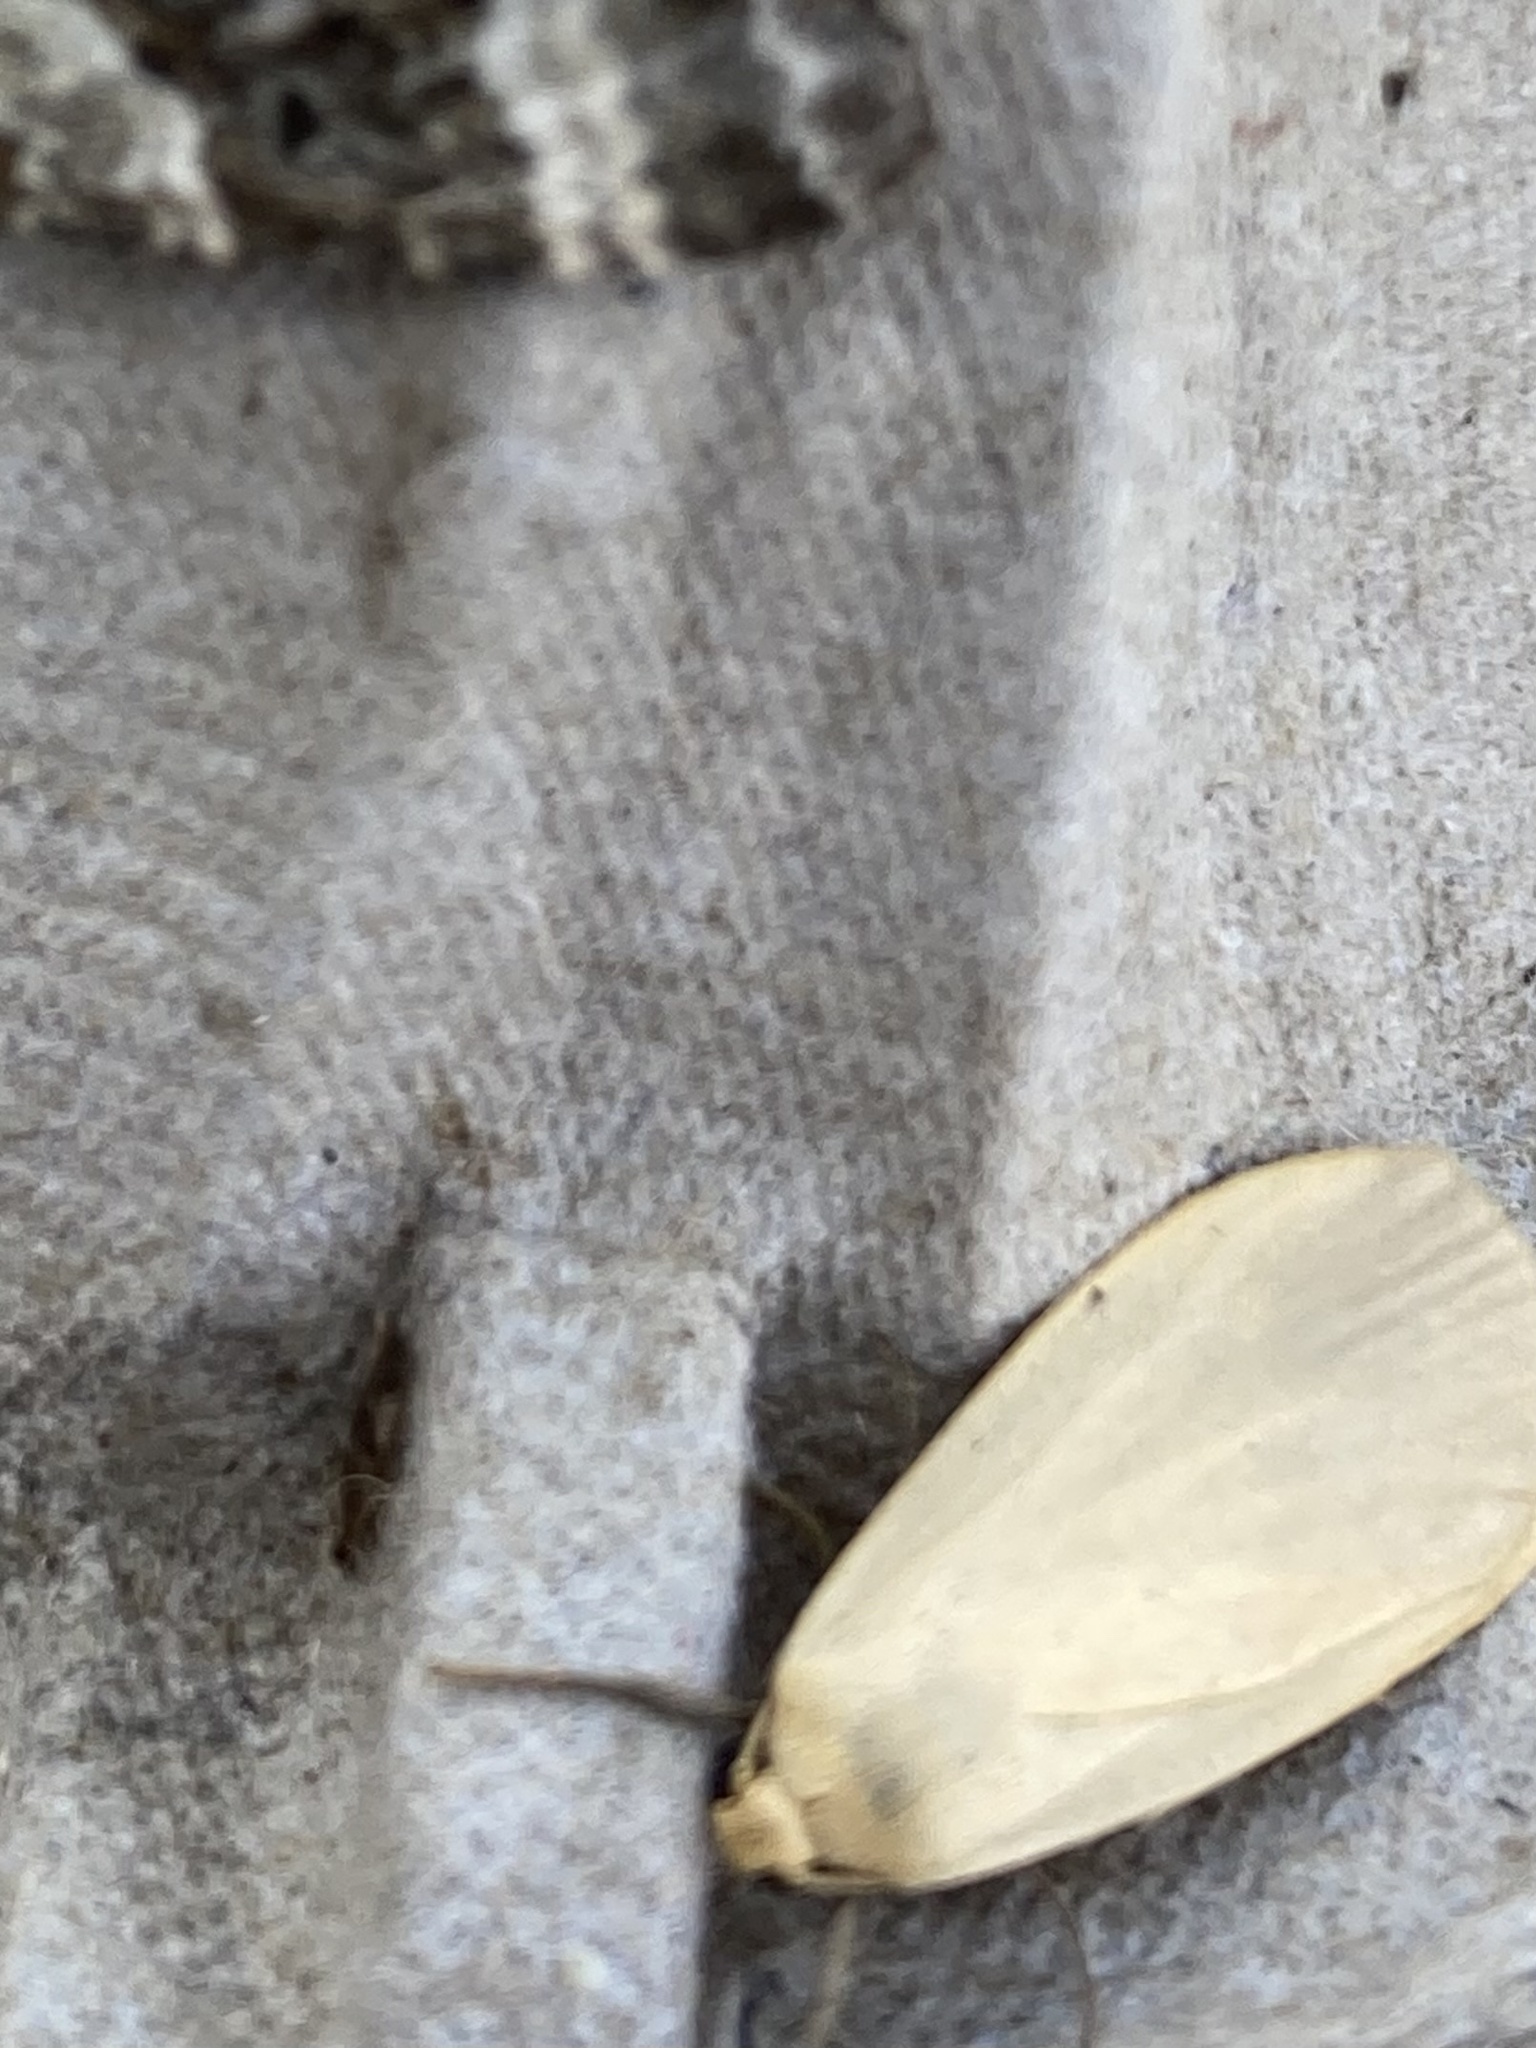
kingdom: Animalia
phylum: Arthropoda
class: Insecta
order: Lepidoptera
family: Erebidae
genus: Collita
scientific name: Collita griseola
